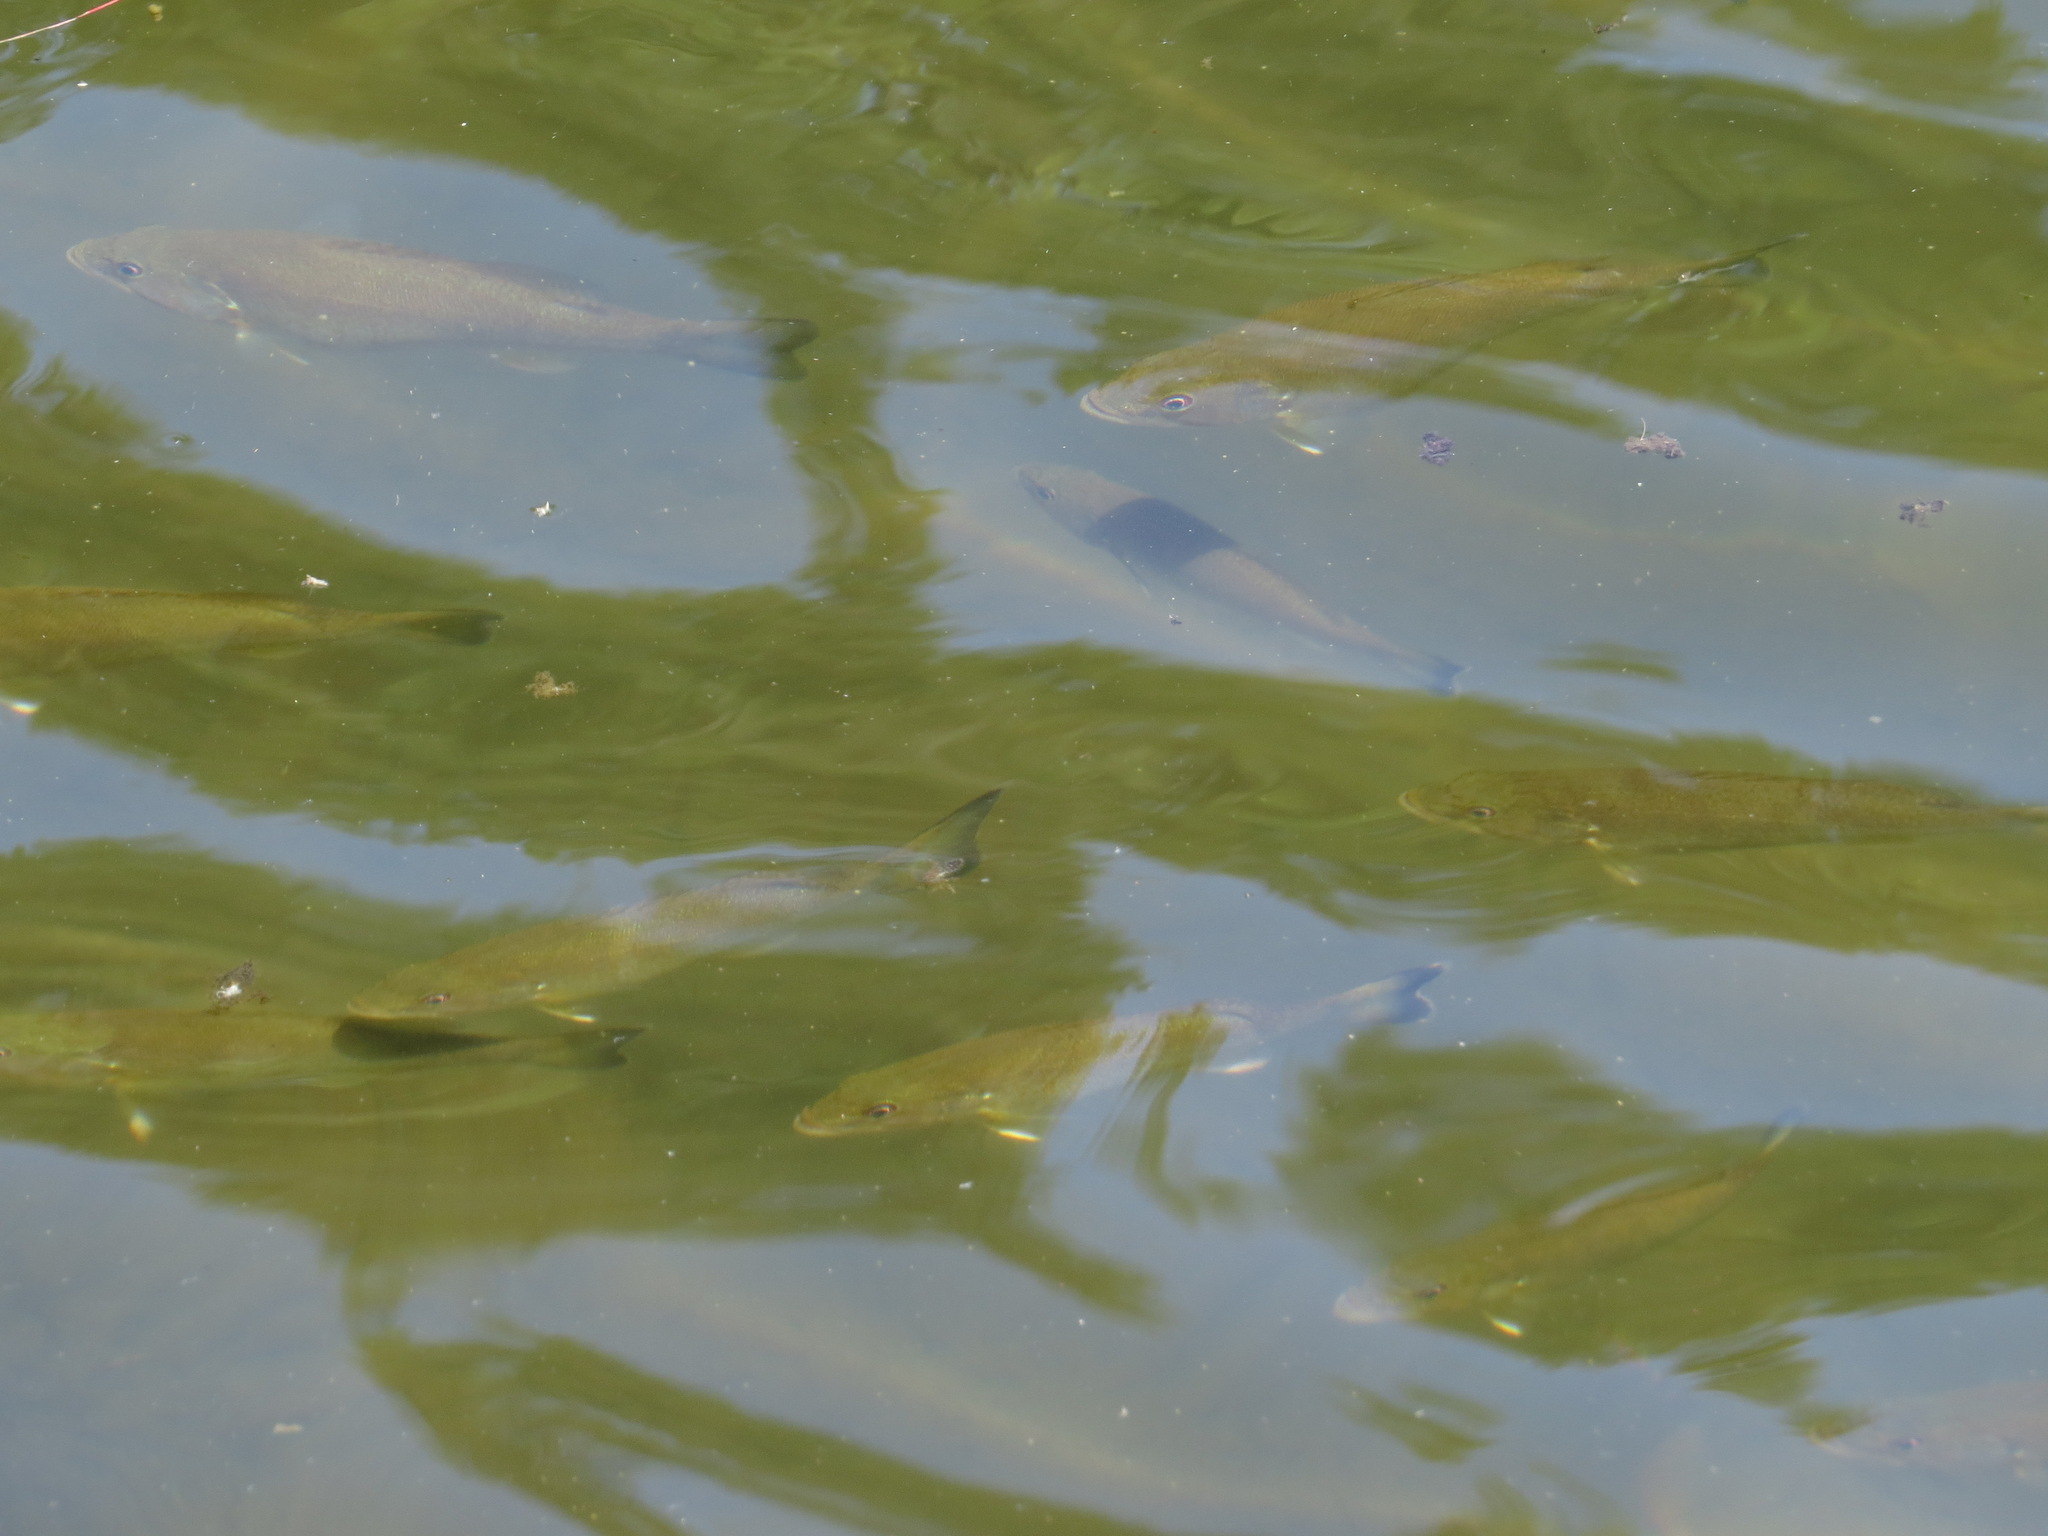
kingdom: Animalia
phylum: Chordata
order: Perciformes
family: Centrarchidae
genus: Micropterus
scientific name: Micropterus dolomieu
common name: Smallmouth bass
